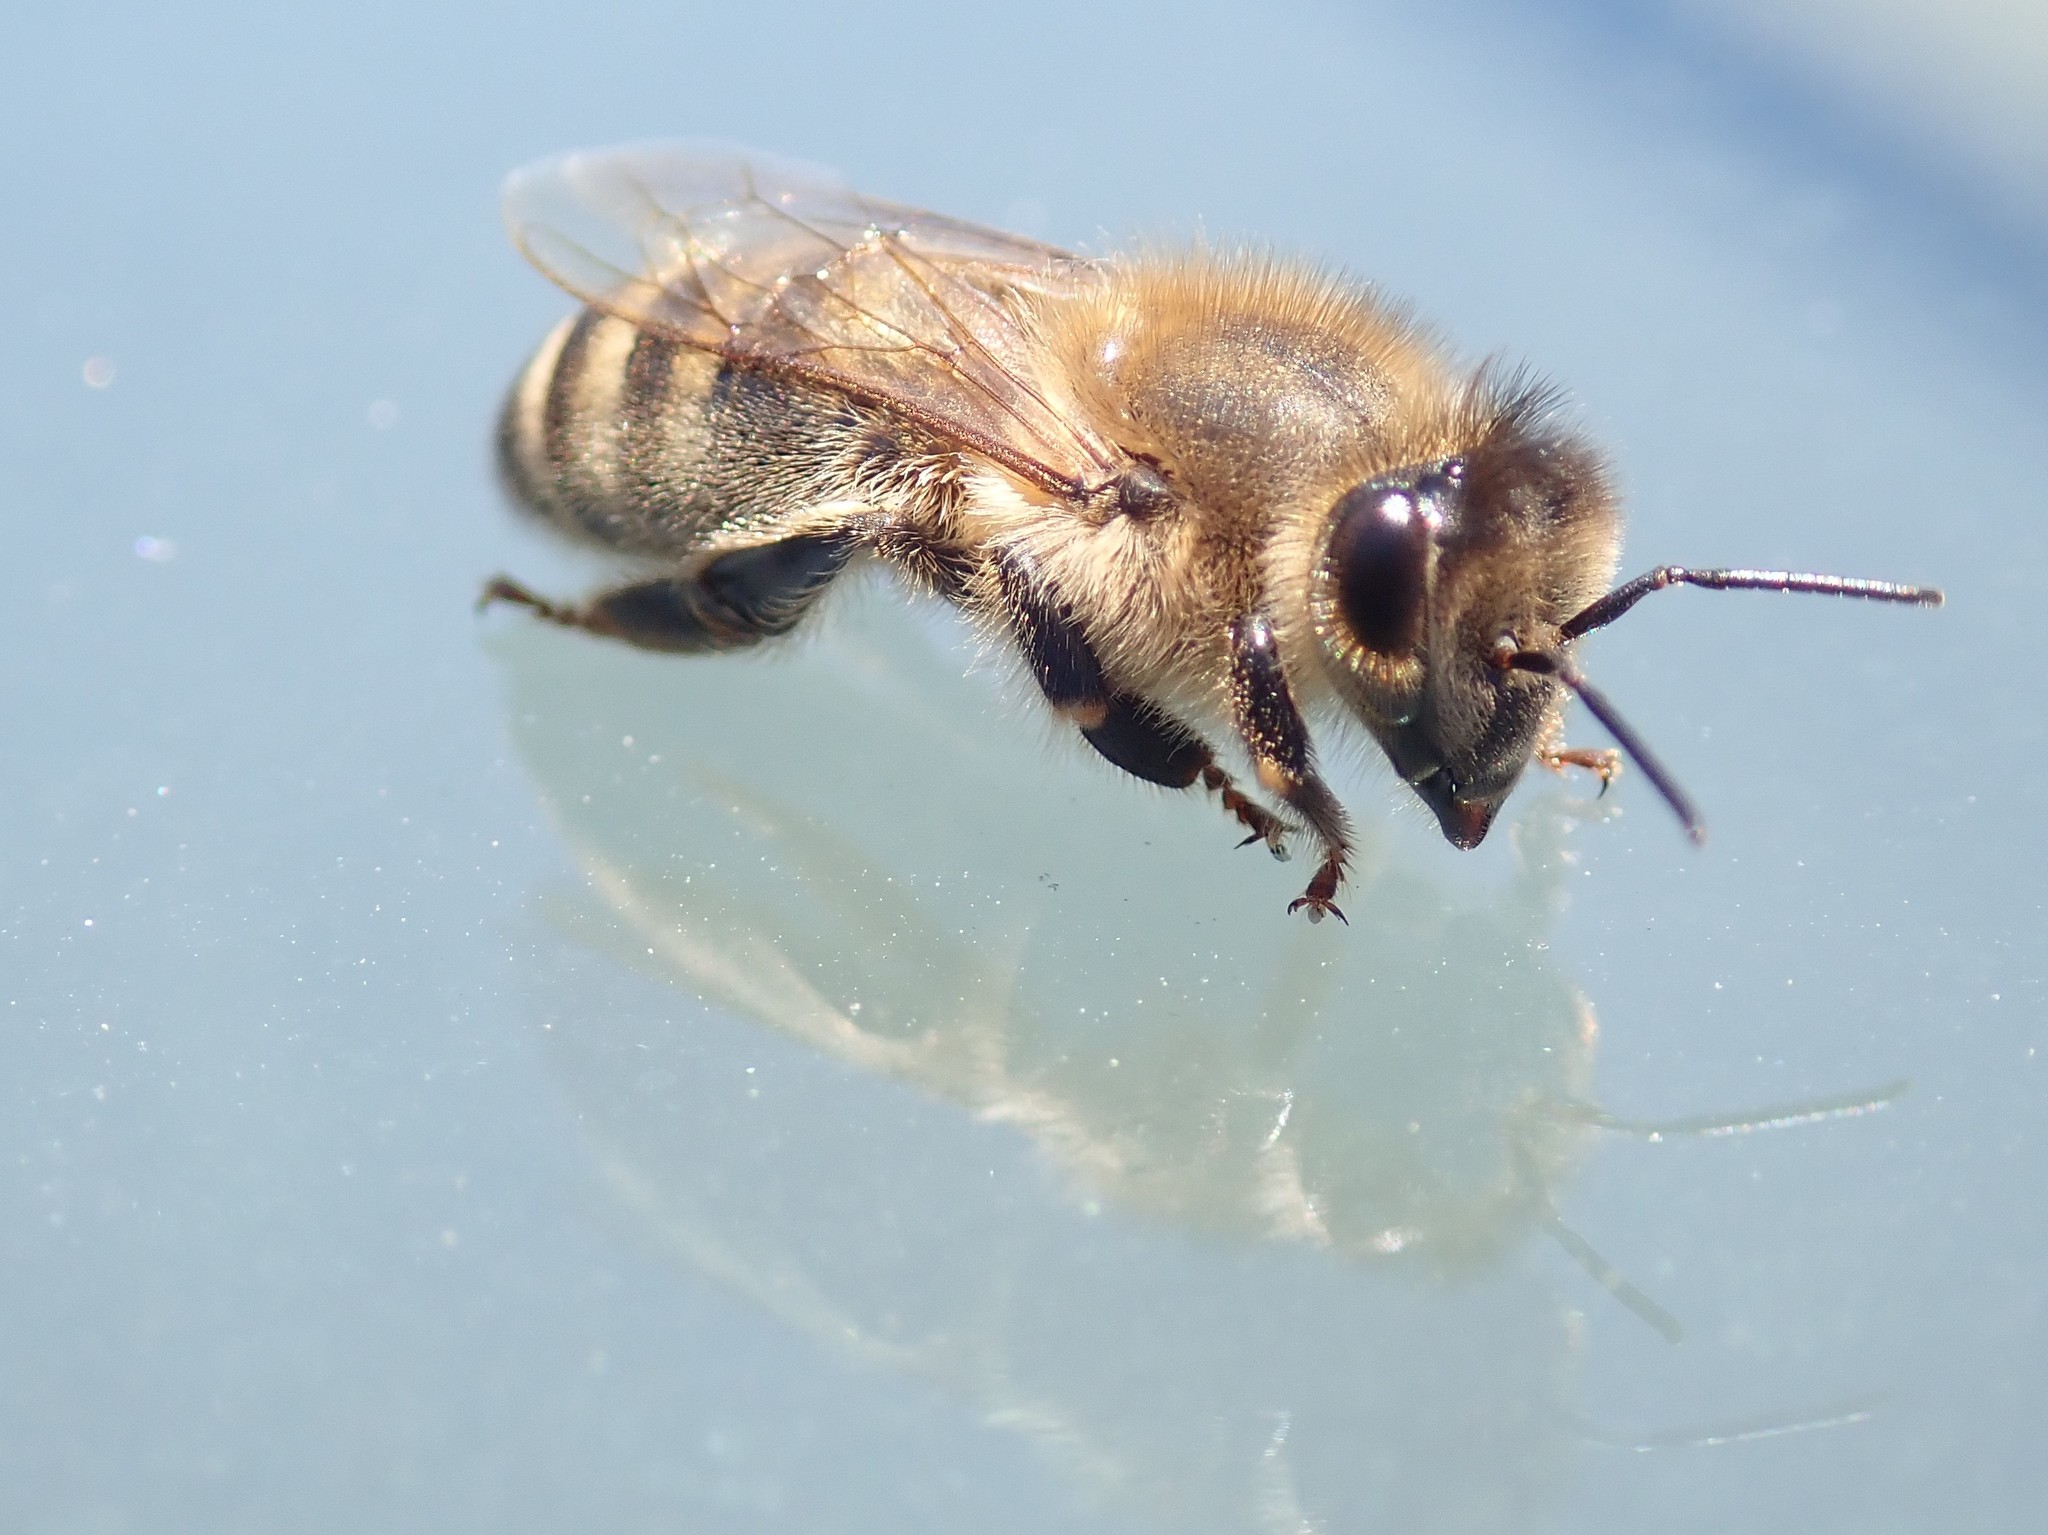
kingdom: Animalia
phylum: Arthropoda
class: Insecta
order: Hymenoptera
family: Apidae
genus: Apis
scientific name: Apis mellifera
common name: Honey bee
